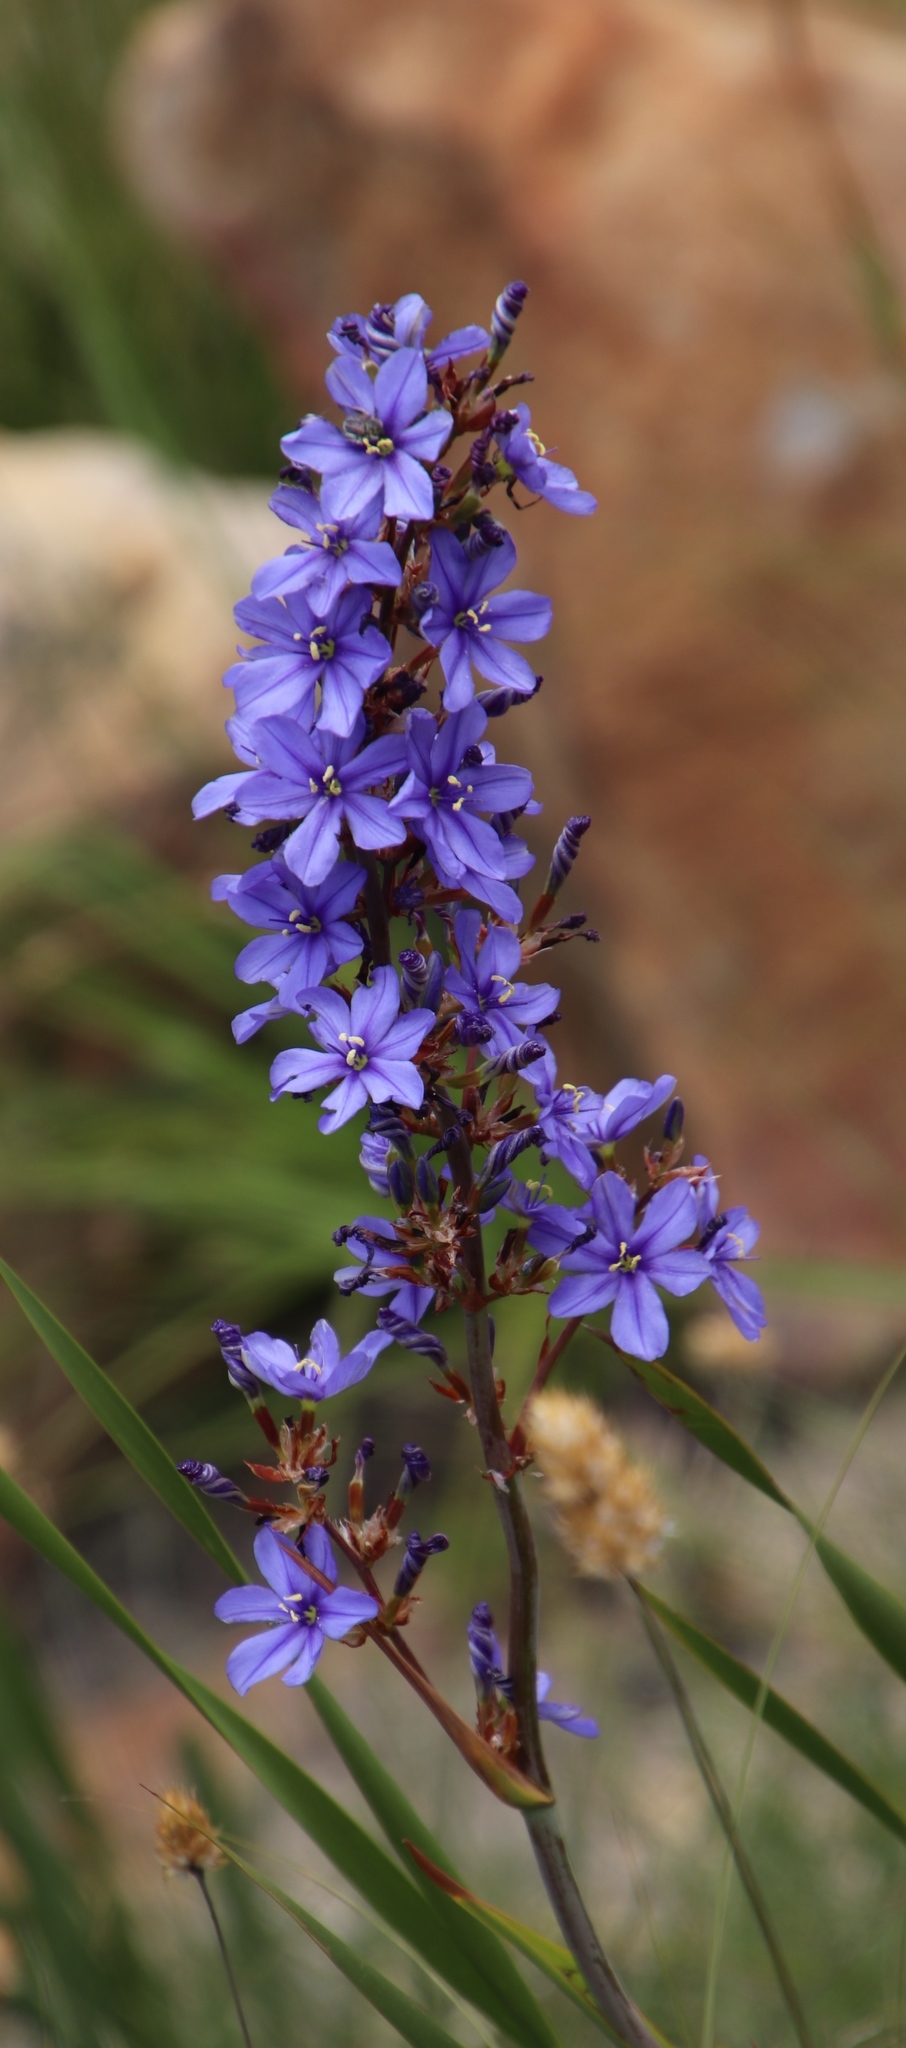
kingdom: Plantae
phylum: Tracheophyta
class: Liliopsida
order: Asparagales
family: Iridaceae
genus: Aristea
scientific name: Aristea bakeri
